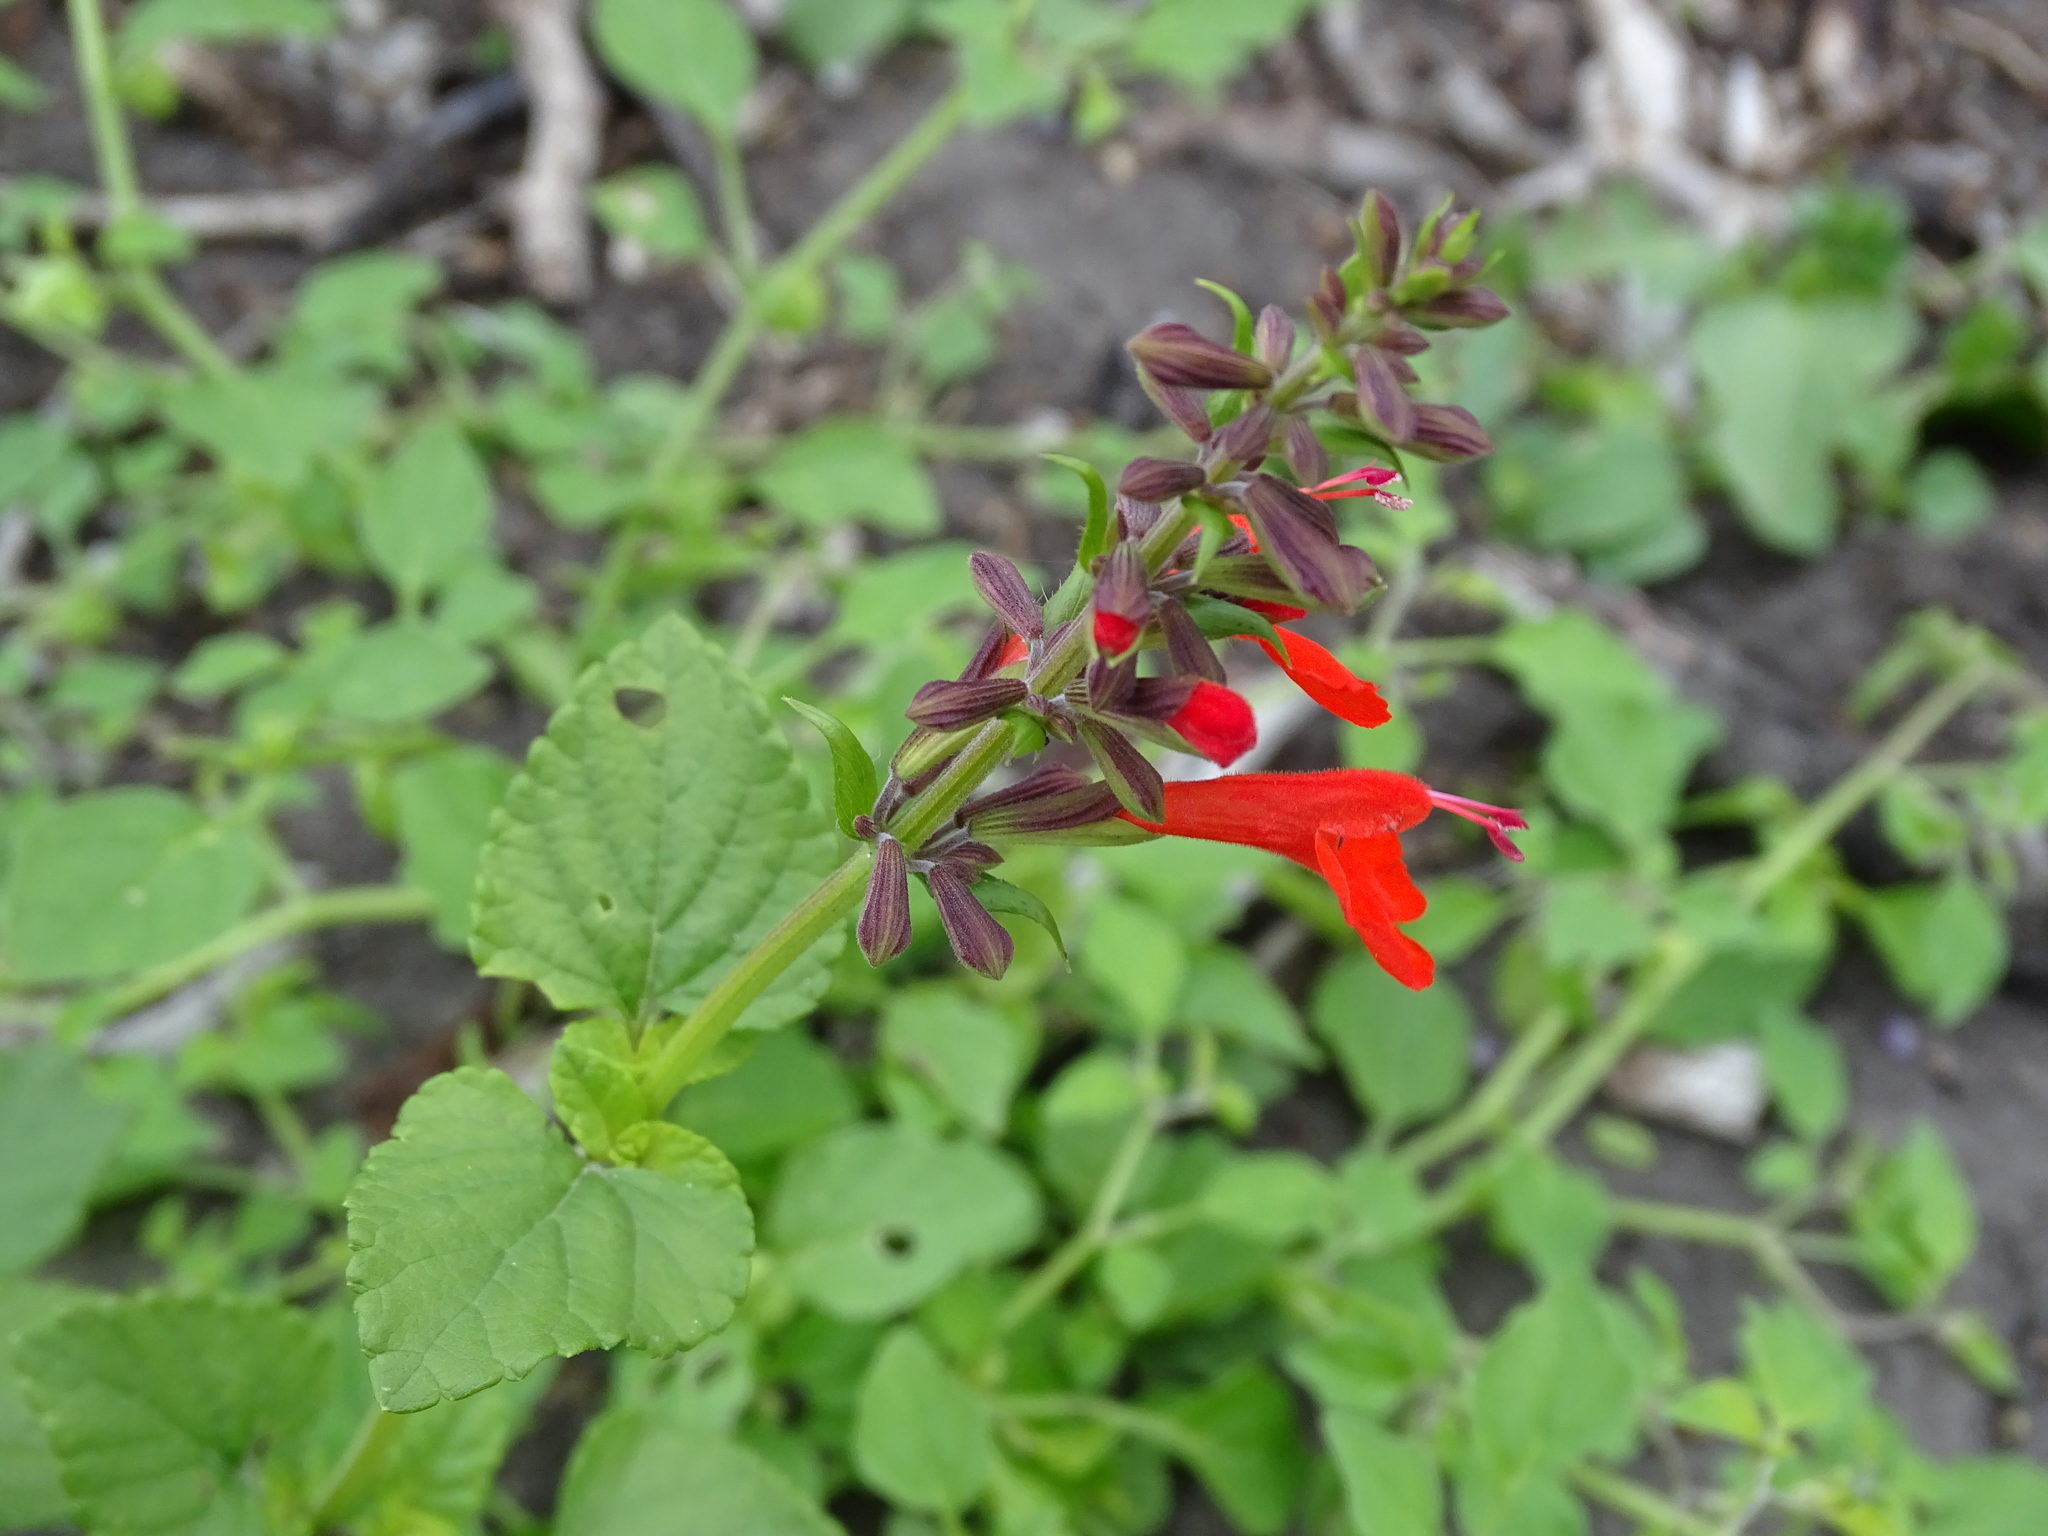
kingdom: Plantae
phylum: Tracheophyta
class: Magnoliopsida
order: Lamiales
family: Lamiaceae
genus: Salvia
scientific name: Salvia coccinea
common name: Blood sage
